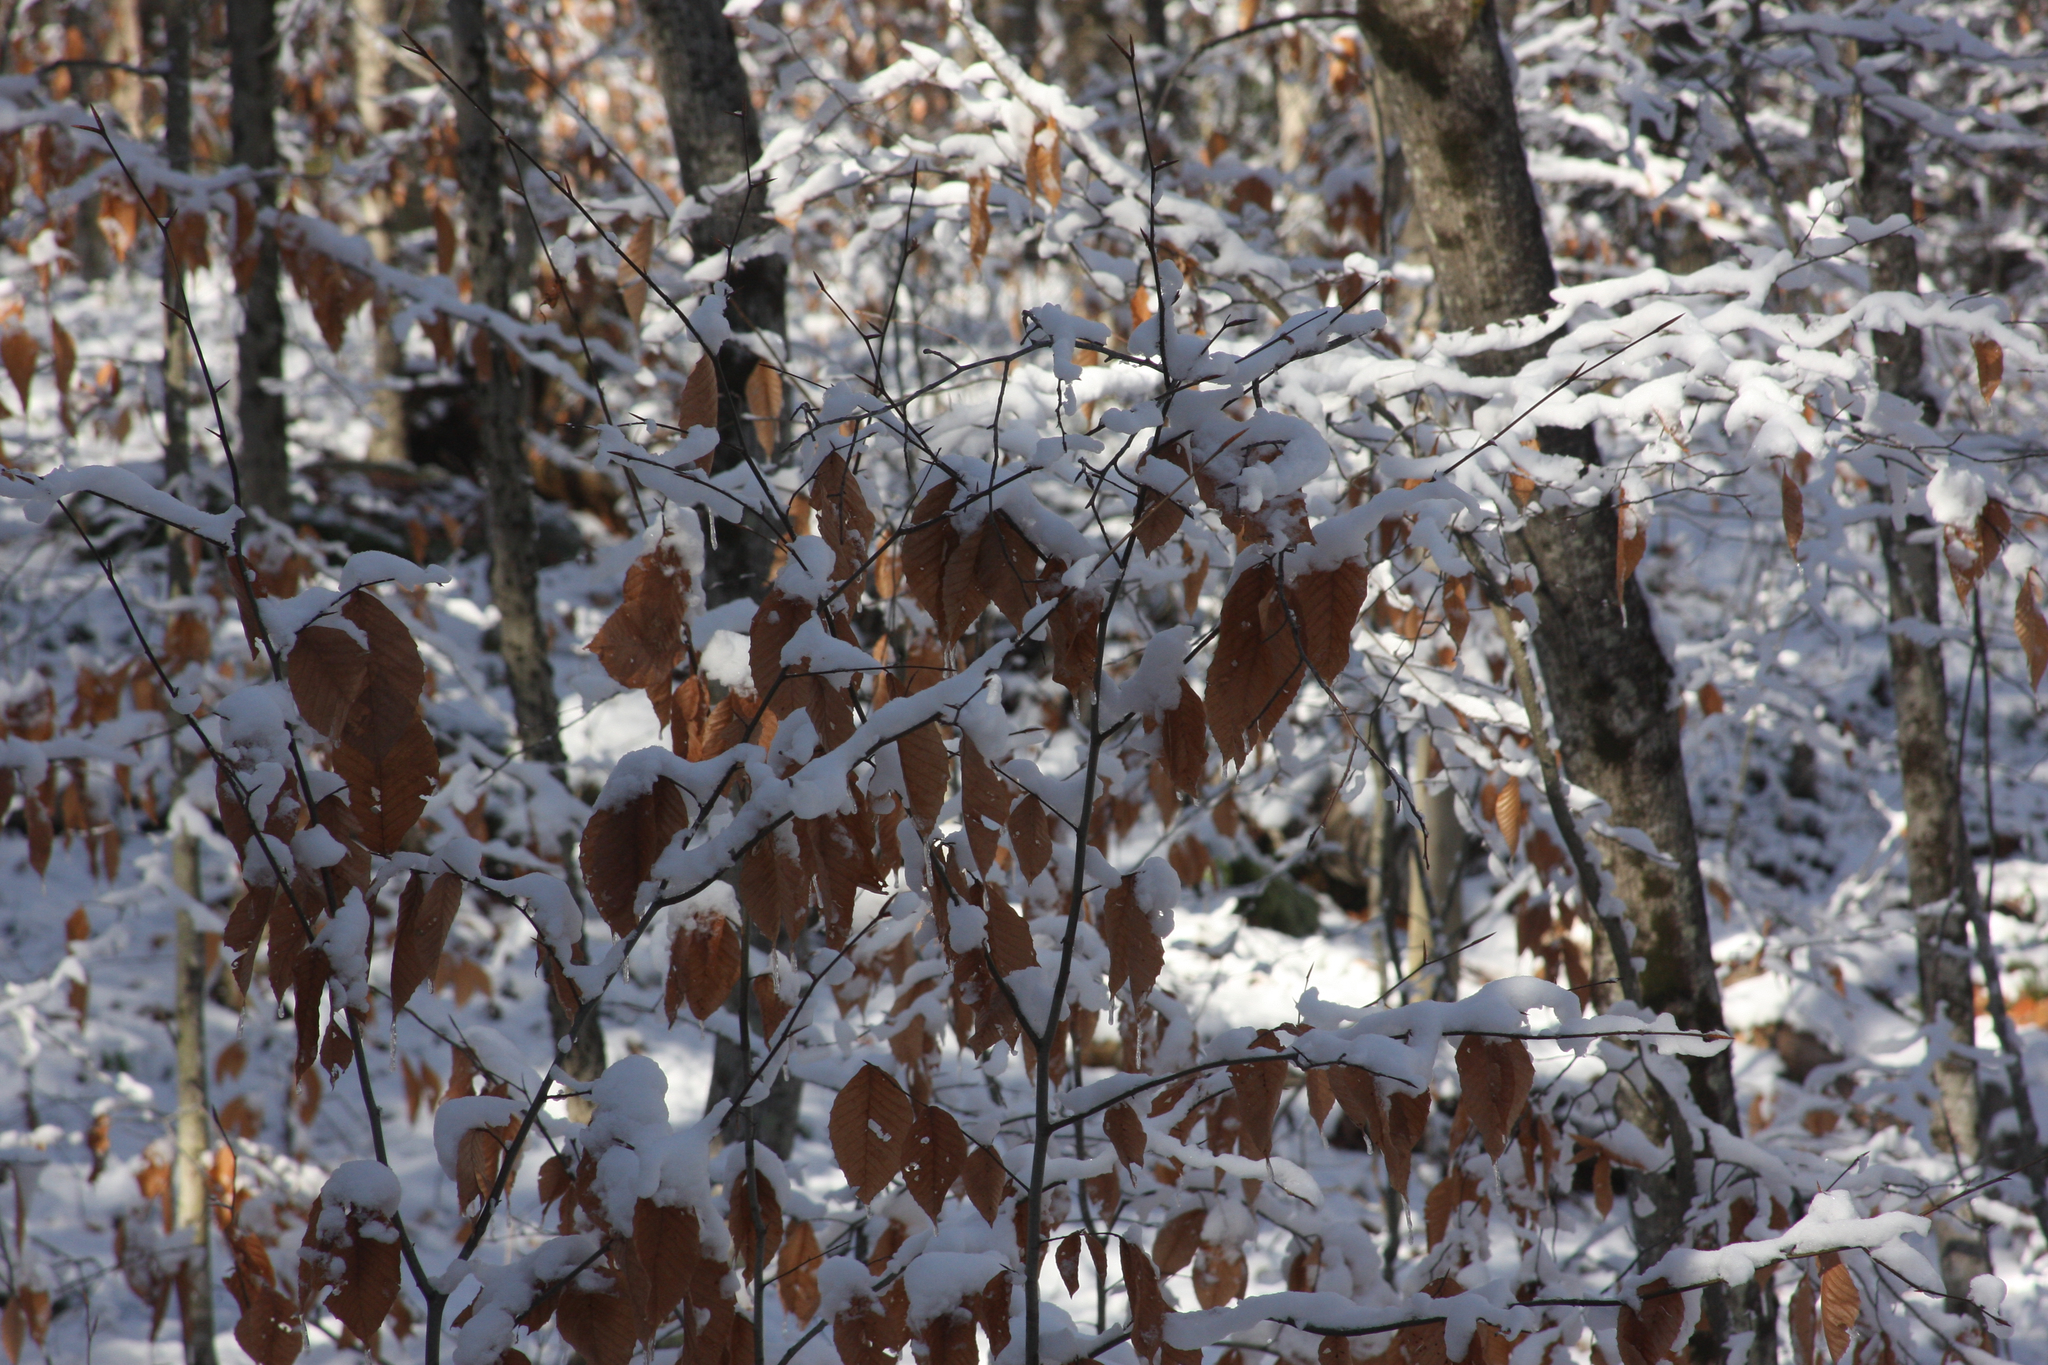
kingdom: Plantae
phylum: Tracheophyta
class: Magnoliopsida
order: Fagales
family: Fagaceae
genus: Fagus
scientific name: Fagus grandifolia
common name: American beech
